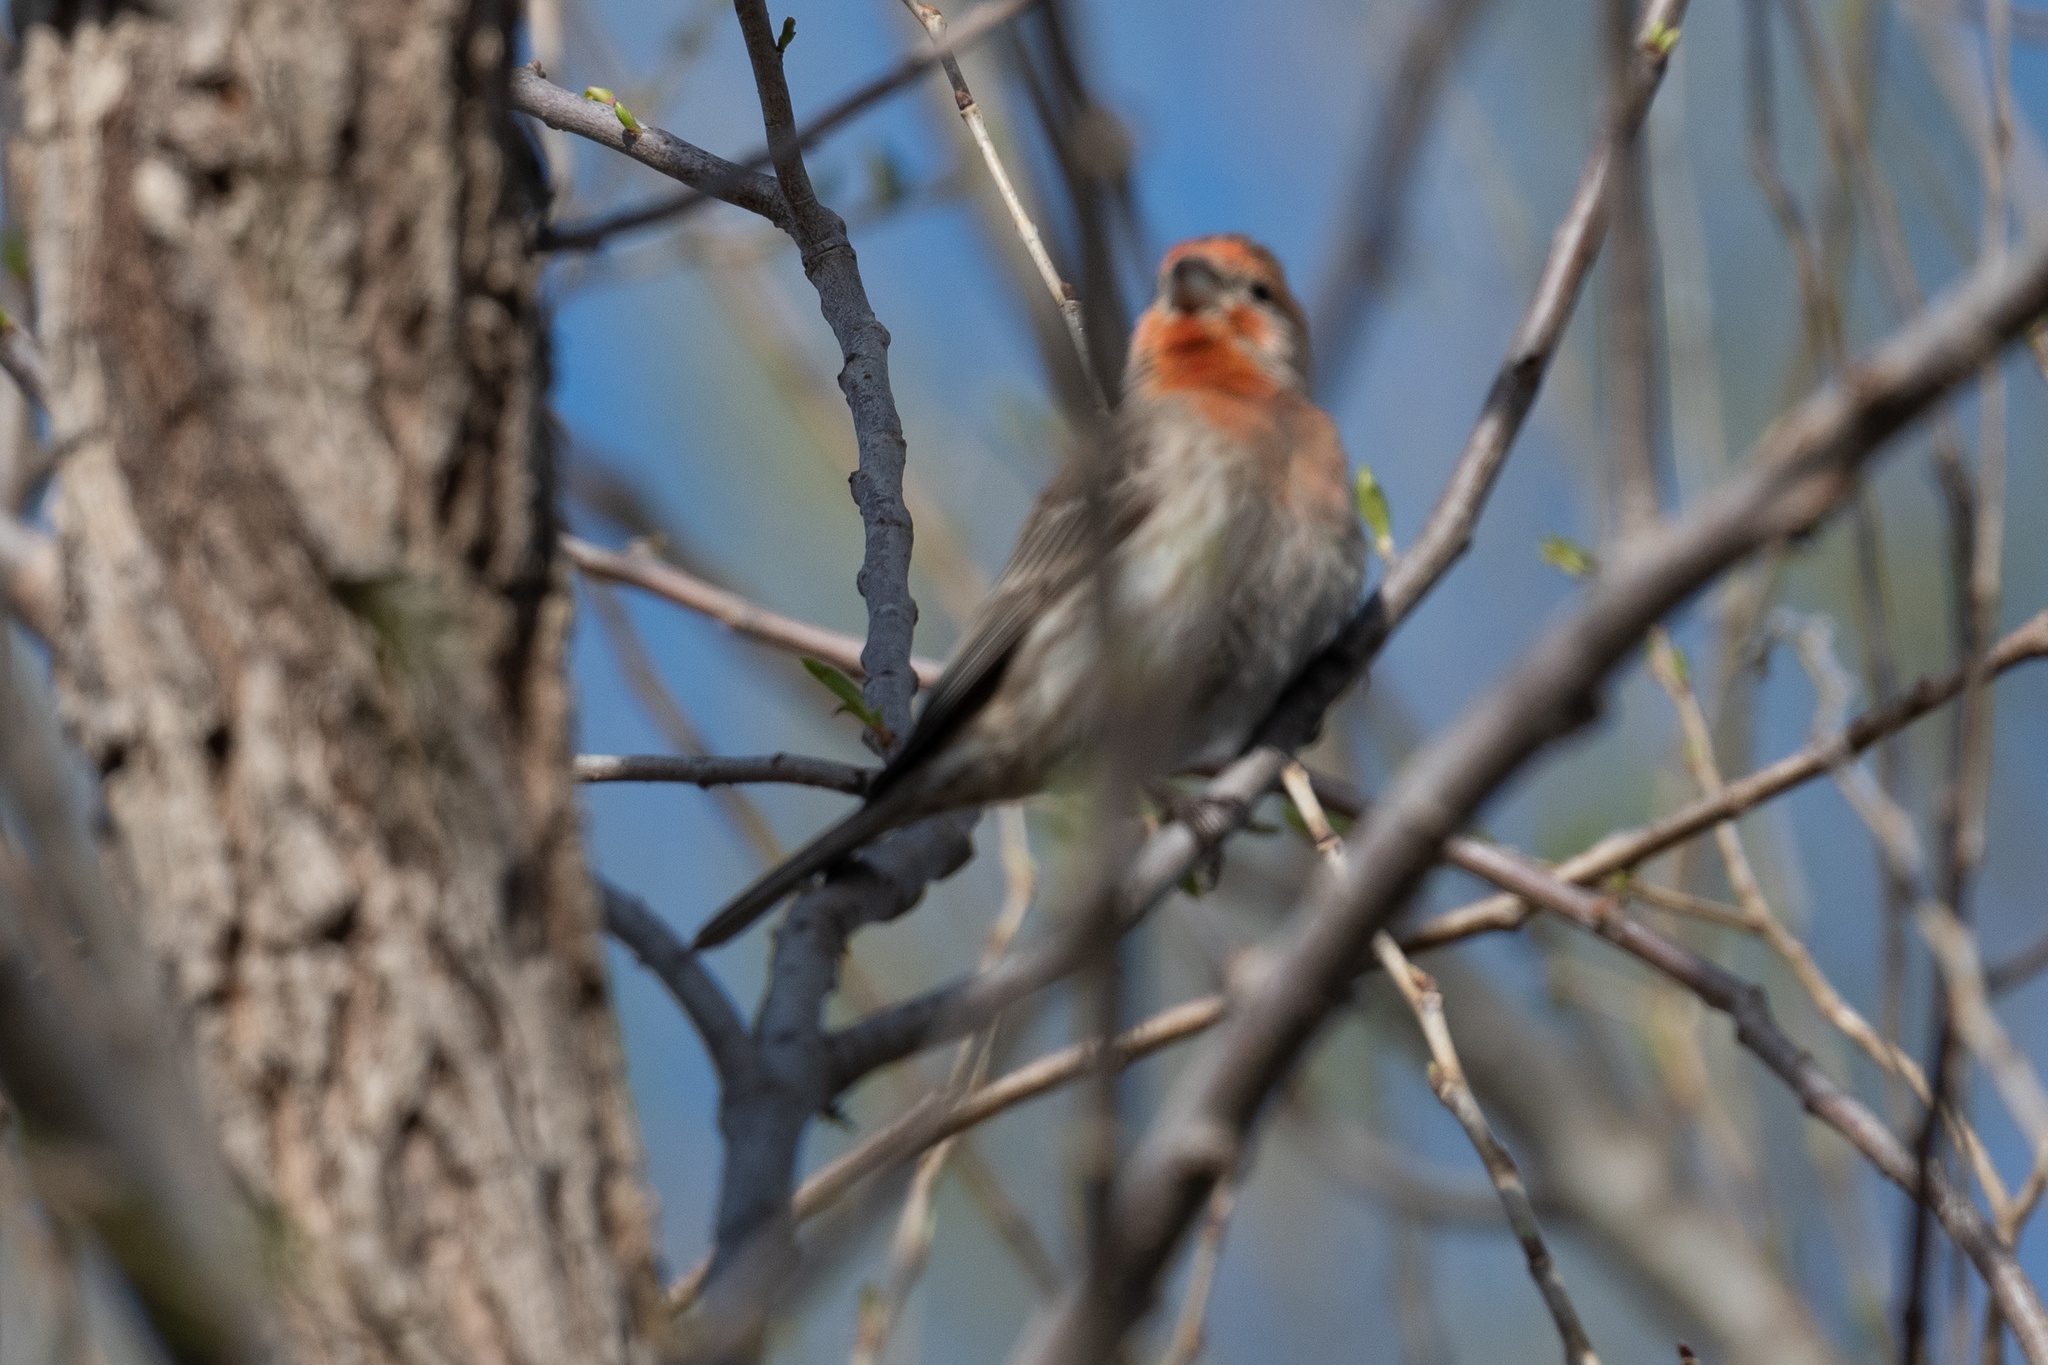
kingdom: Animalia
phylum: Chordata
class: Aves
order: Passeriformes
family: Fringillidae
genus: Haemorhous
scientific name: Haemorhous mexicanus
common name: House finch
